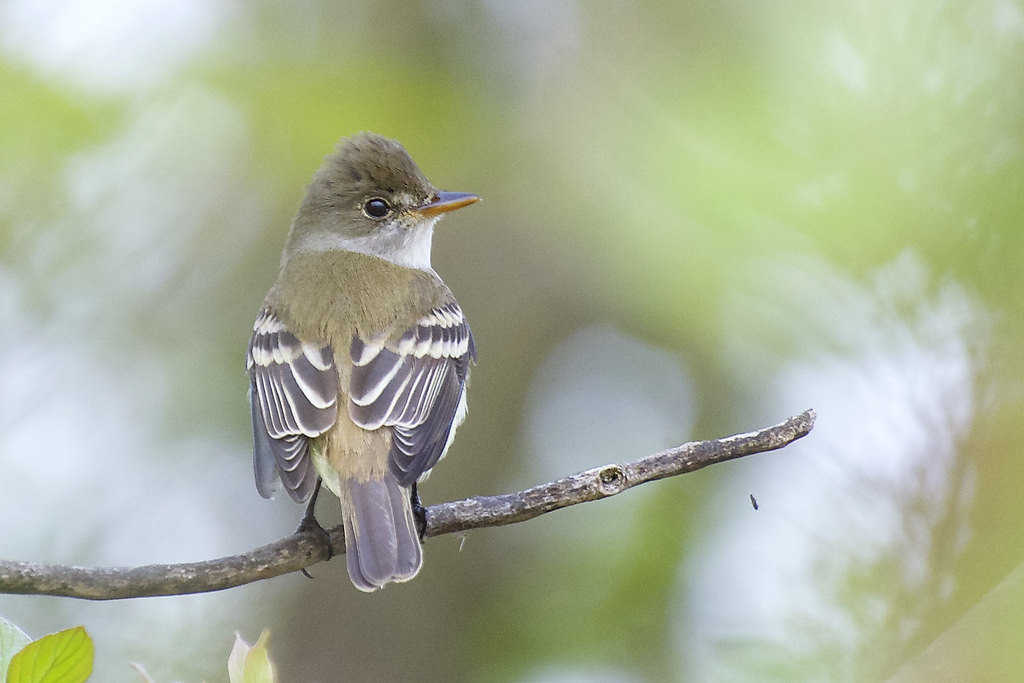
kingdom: Animalia
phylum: Chordata
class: Aves
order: Passeriformes
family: Tyrannidae
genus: Empidonax
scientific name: Empidonax traillii
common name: Willow flycatcher
